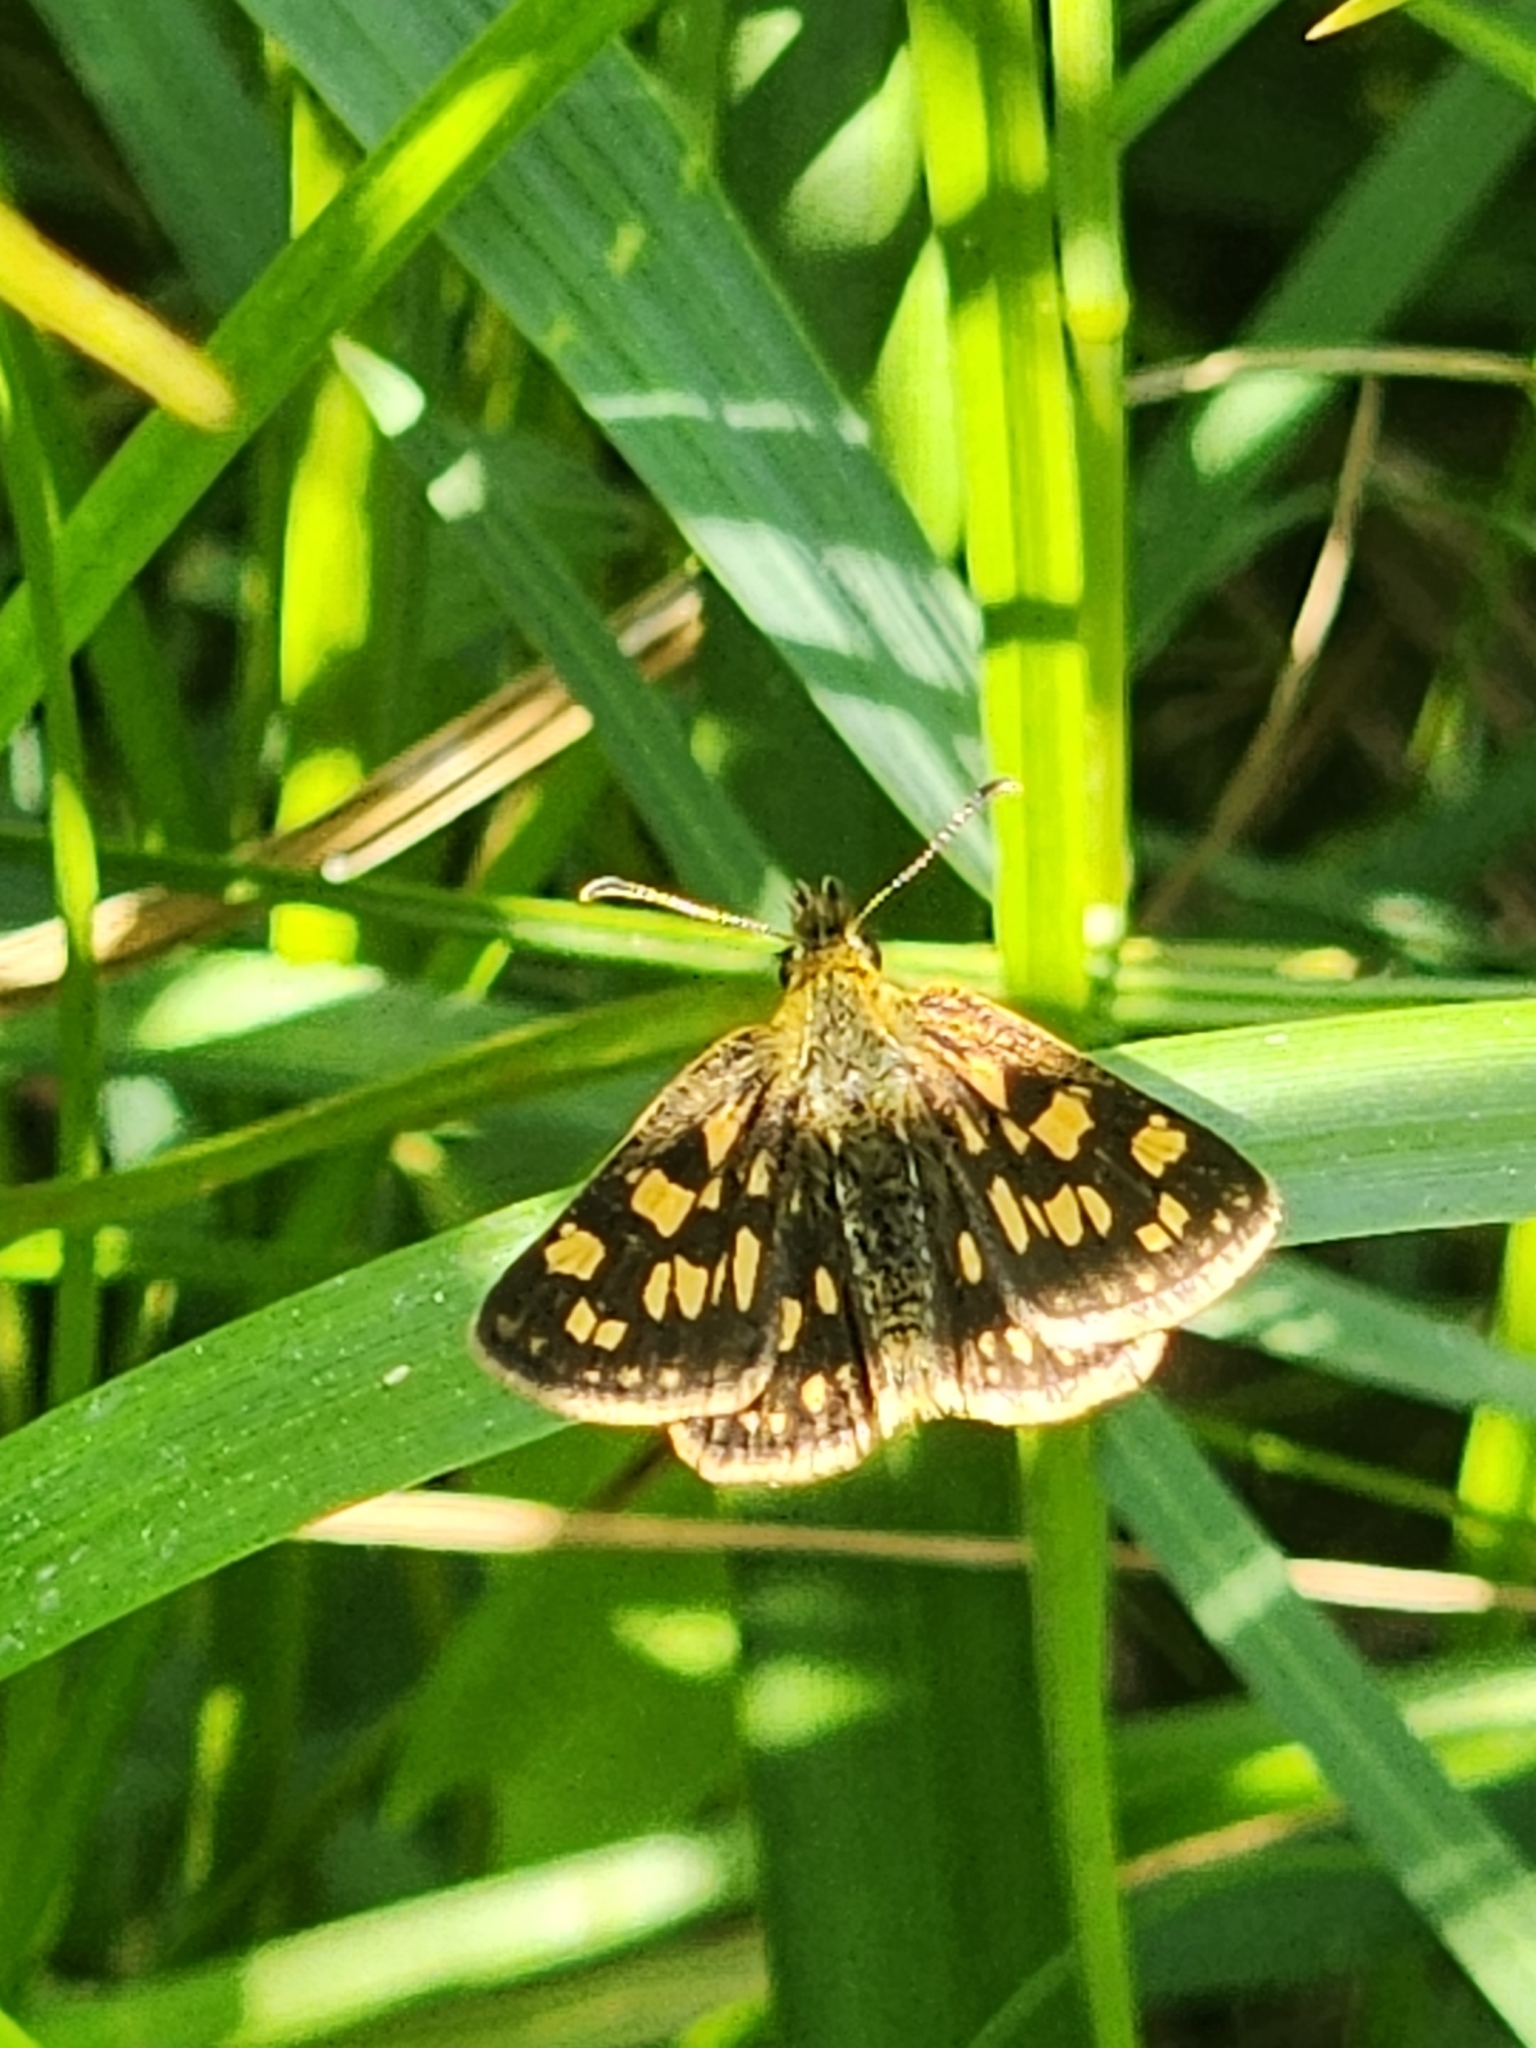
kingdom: Animalia
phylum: Arthropoda
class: Insecta
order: Lepidoptera
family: Hesperiidae
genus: Carterocephalus
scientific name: Carterocephalus mandan
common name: Arctic skipperling
